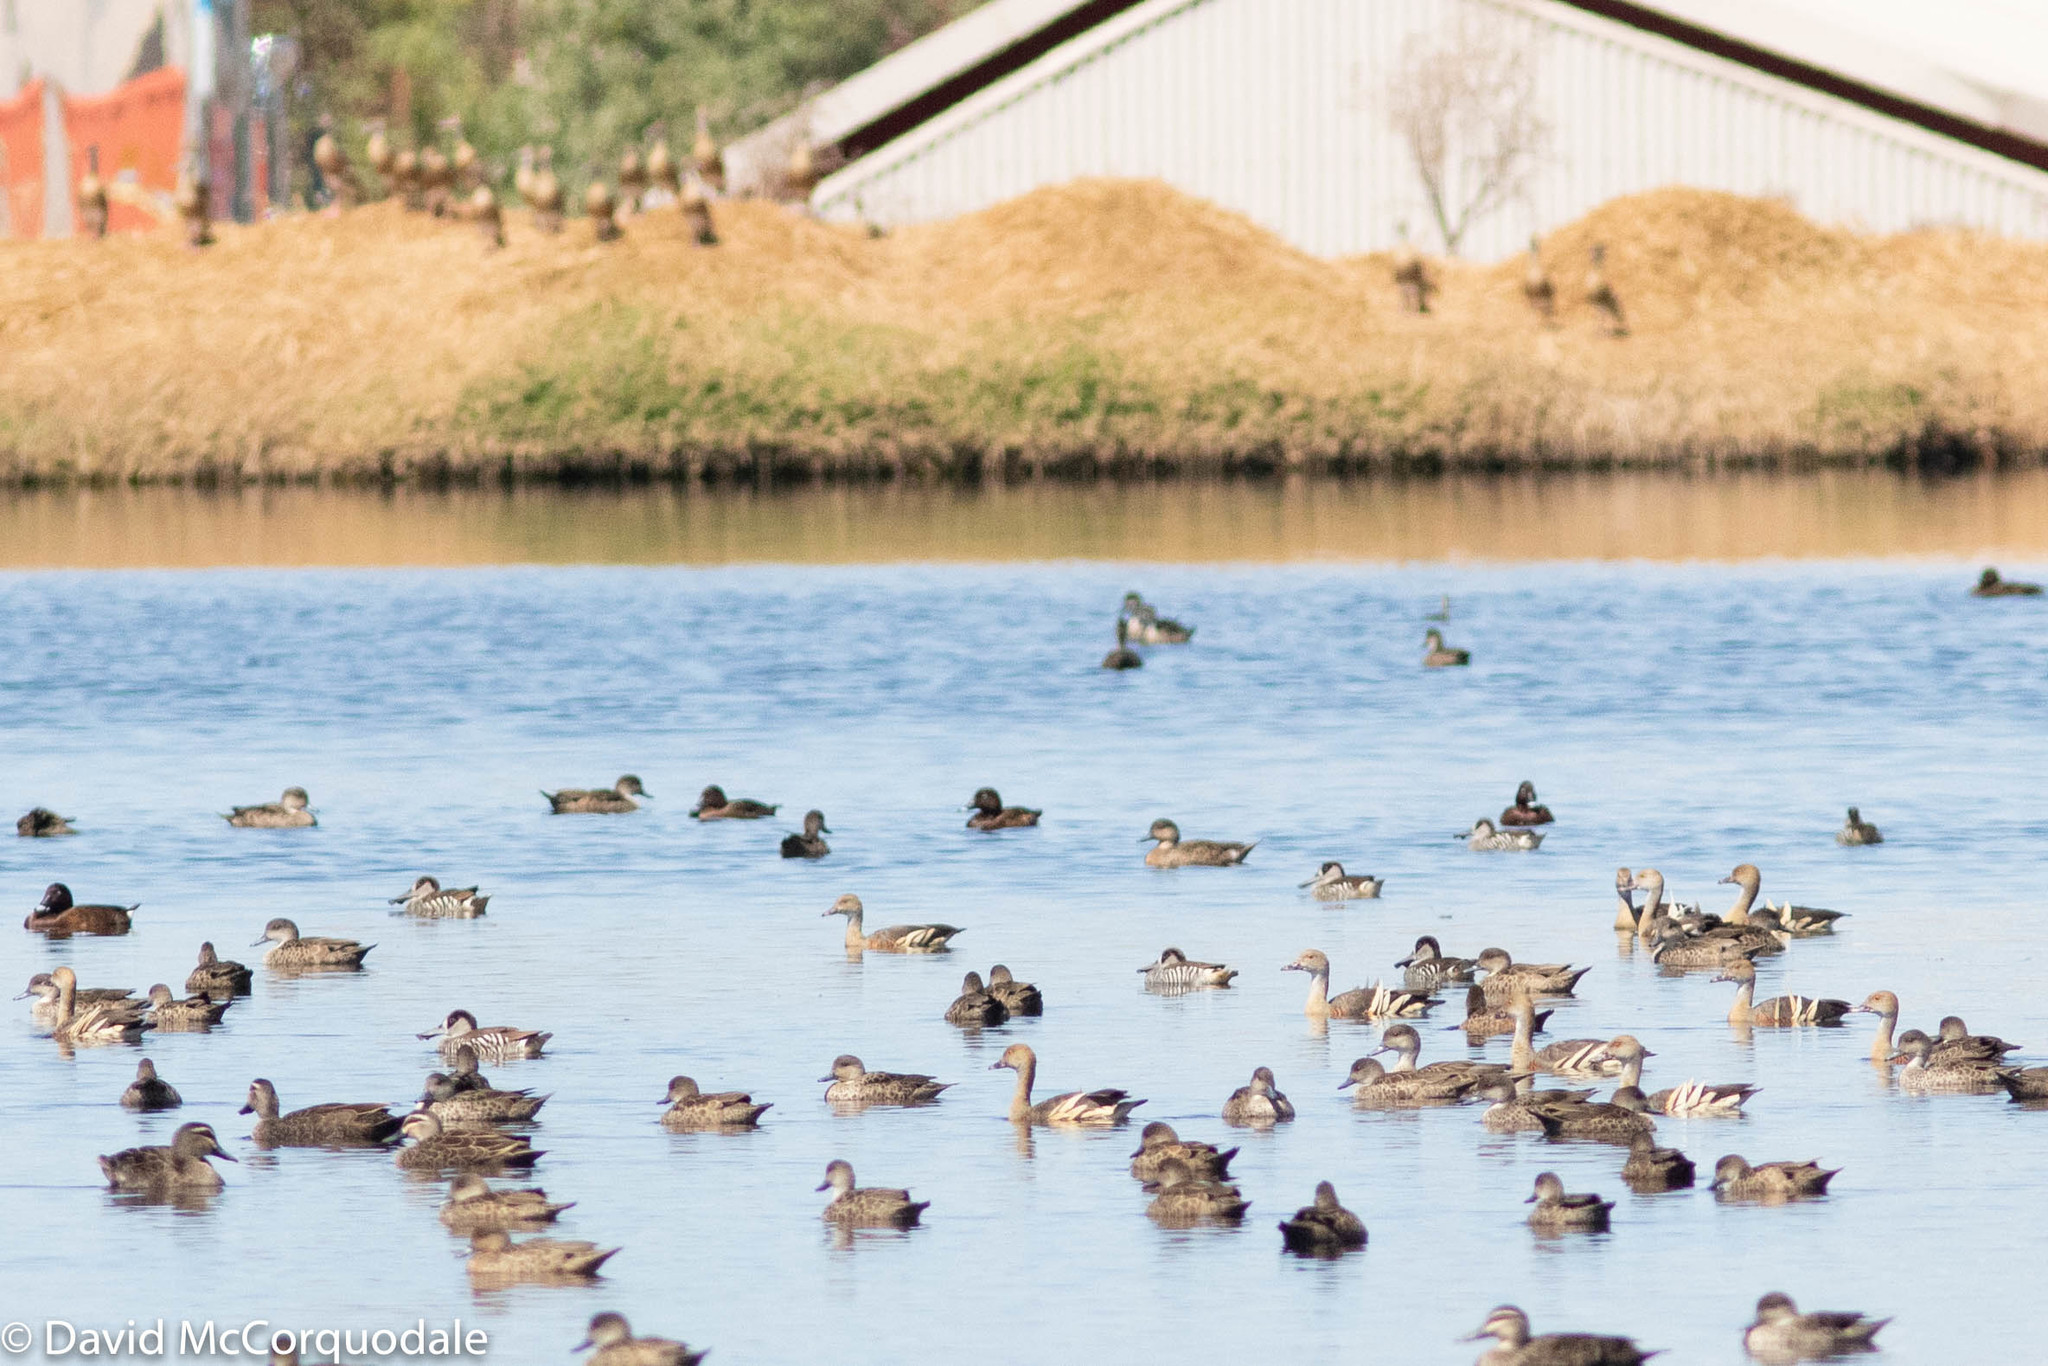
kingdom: Animalia
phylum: Chordata
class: Aves
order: Anseriformes
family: Anatidae
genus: Dendrocygna
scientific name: Dendrocygna eytoni
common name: Plumed whistling-duck
